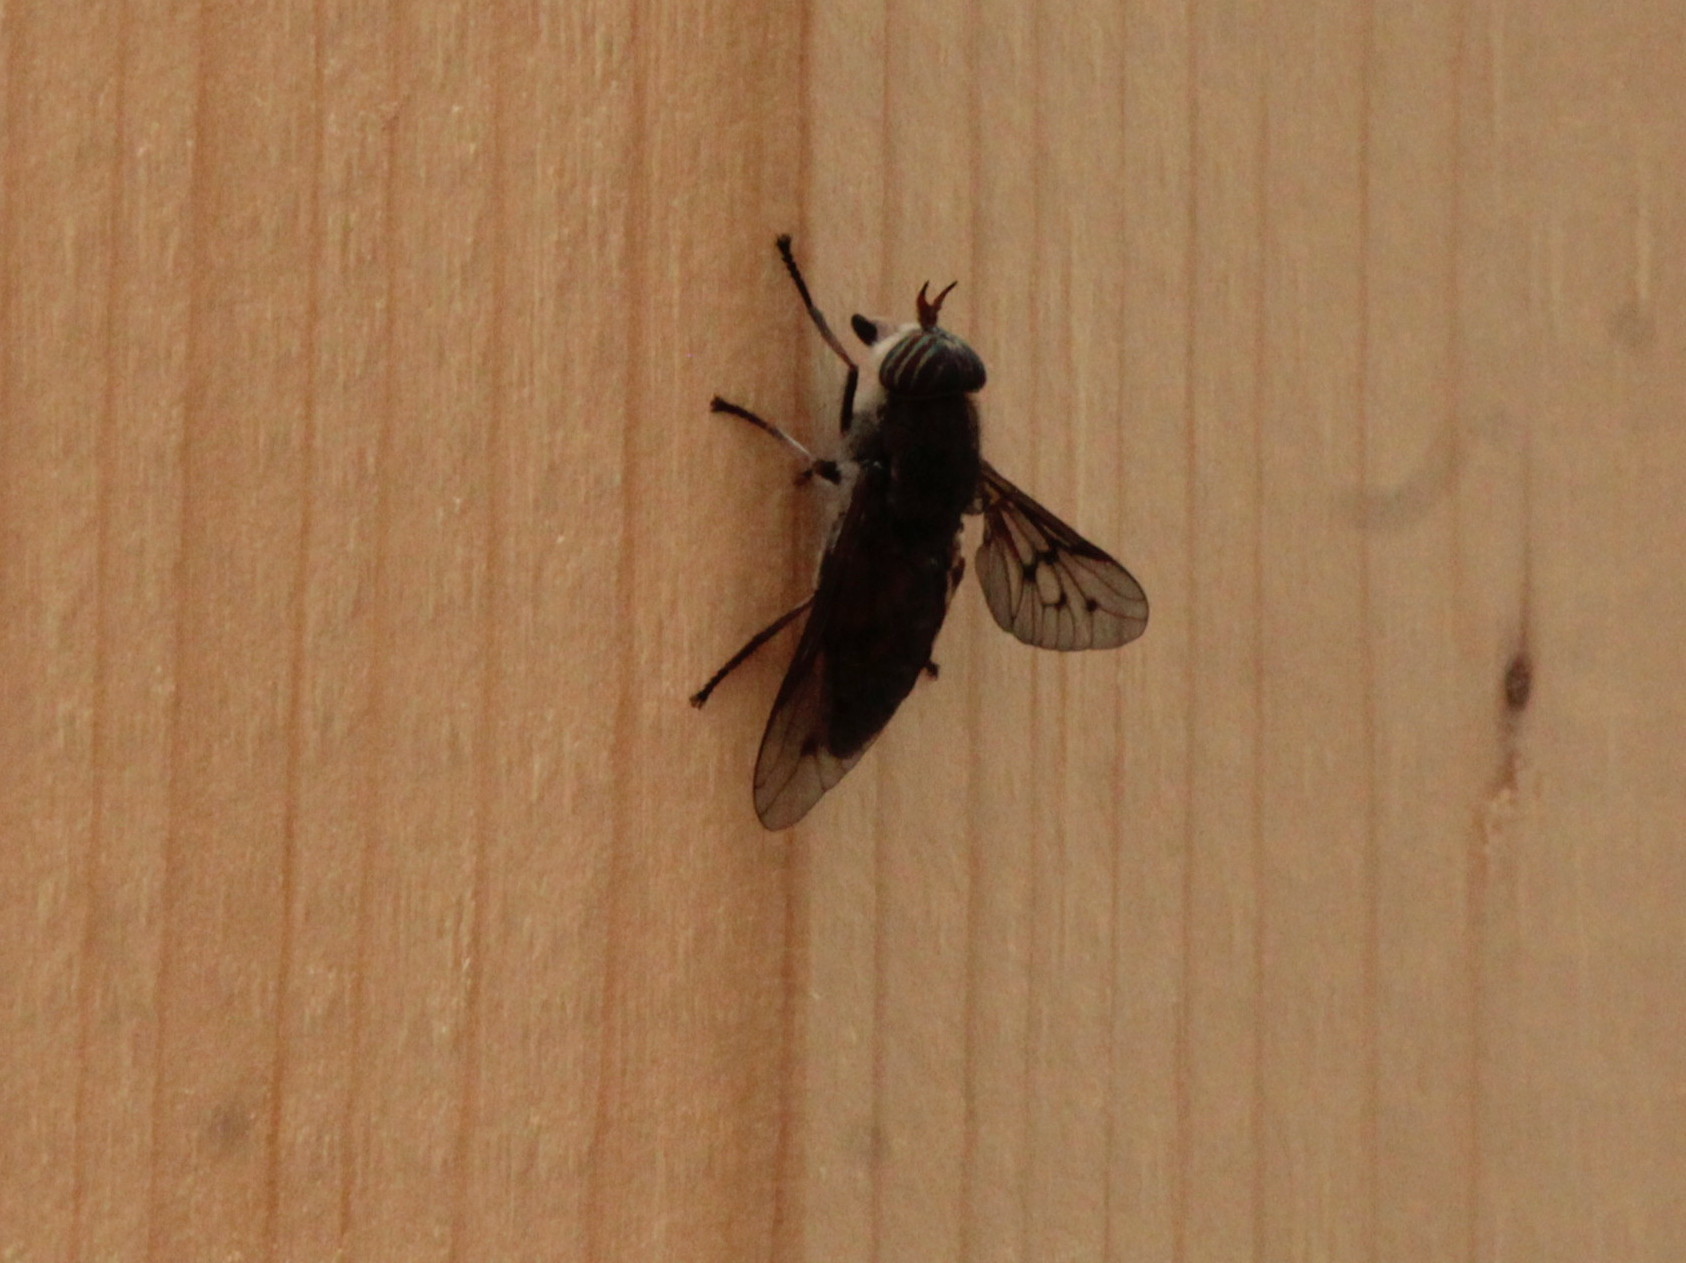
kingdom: Animalia
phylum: Arthropoda
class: Insecta
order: Diptera
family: Tabanidae
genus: Hybomitra
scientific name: Hybomitra lasiophthalma
